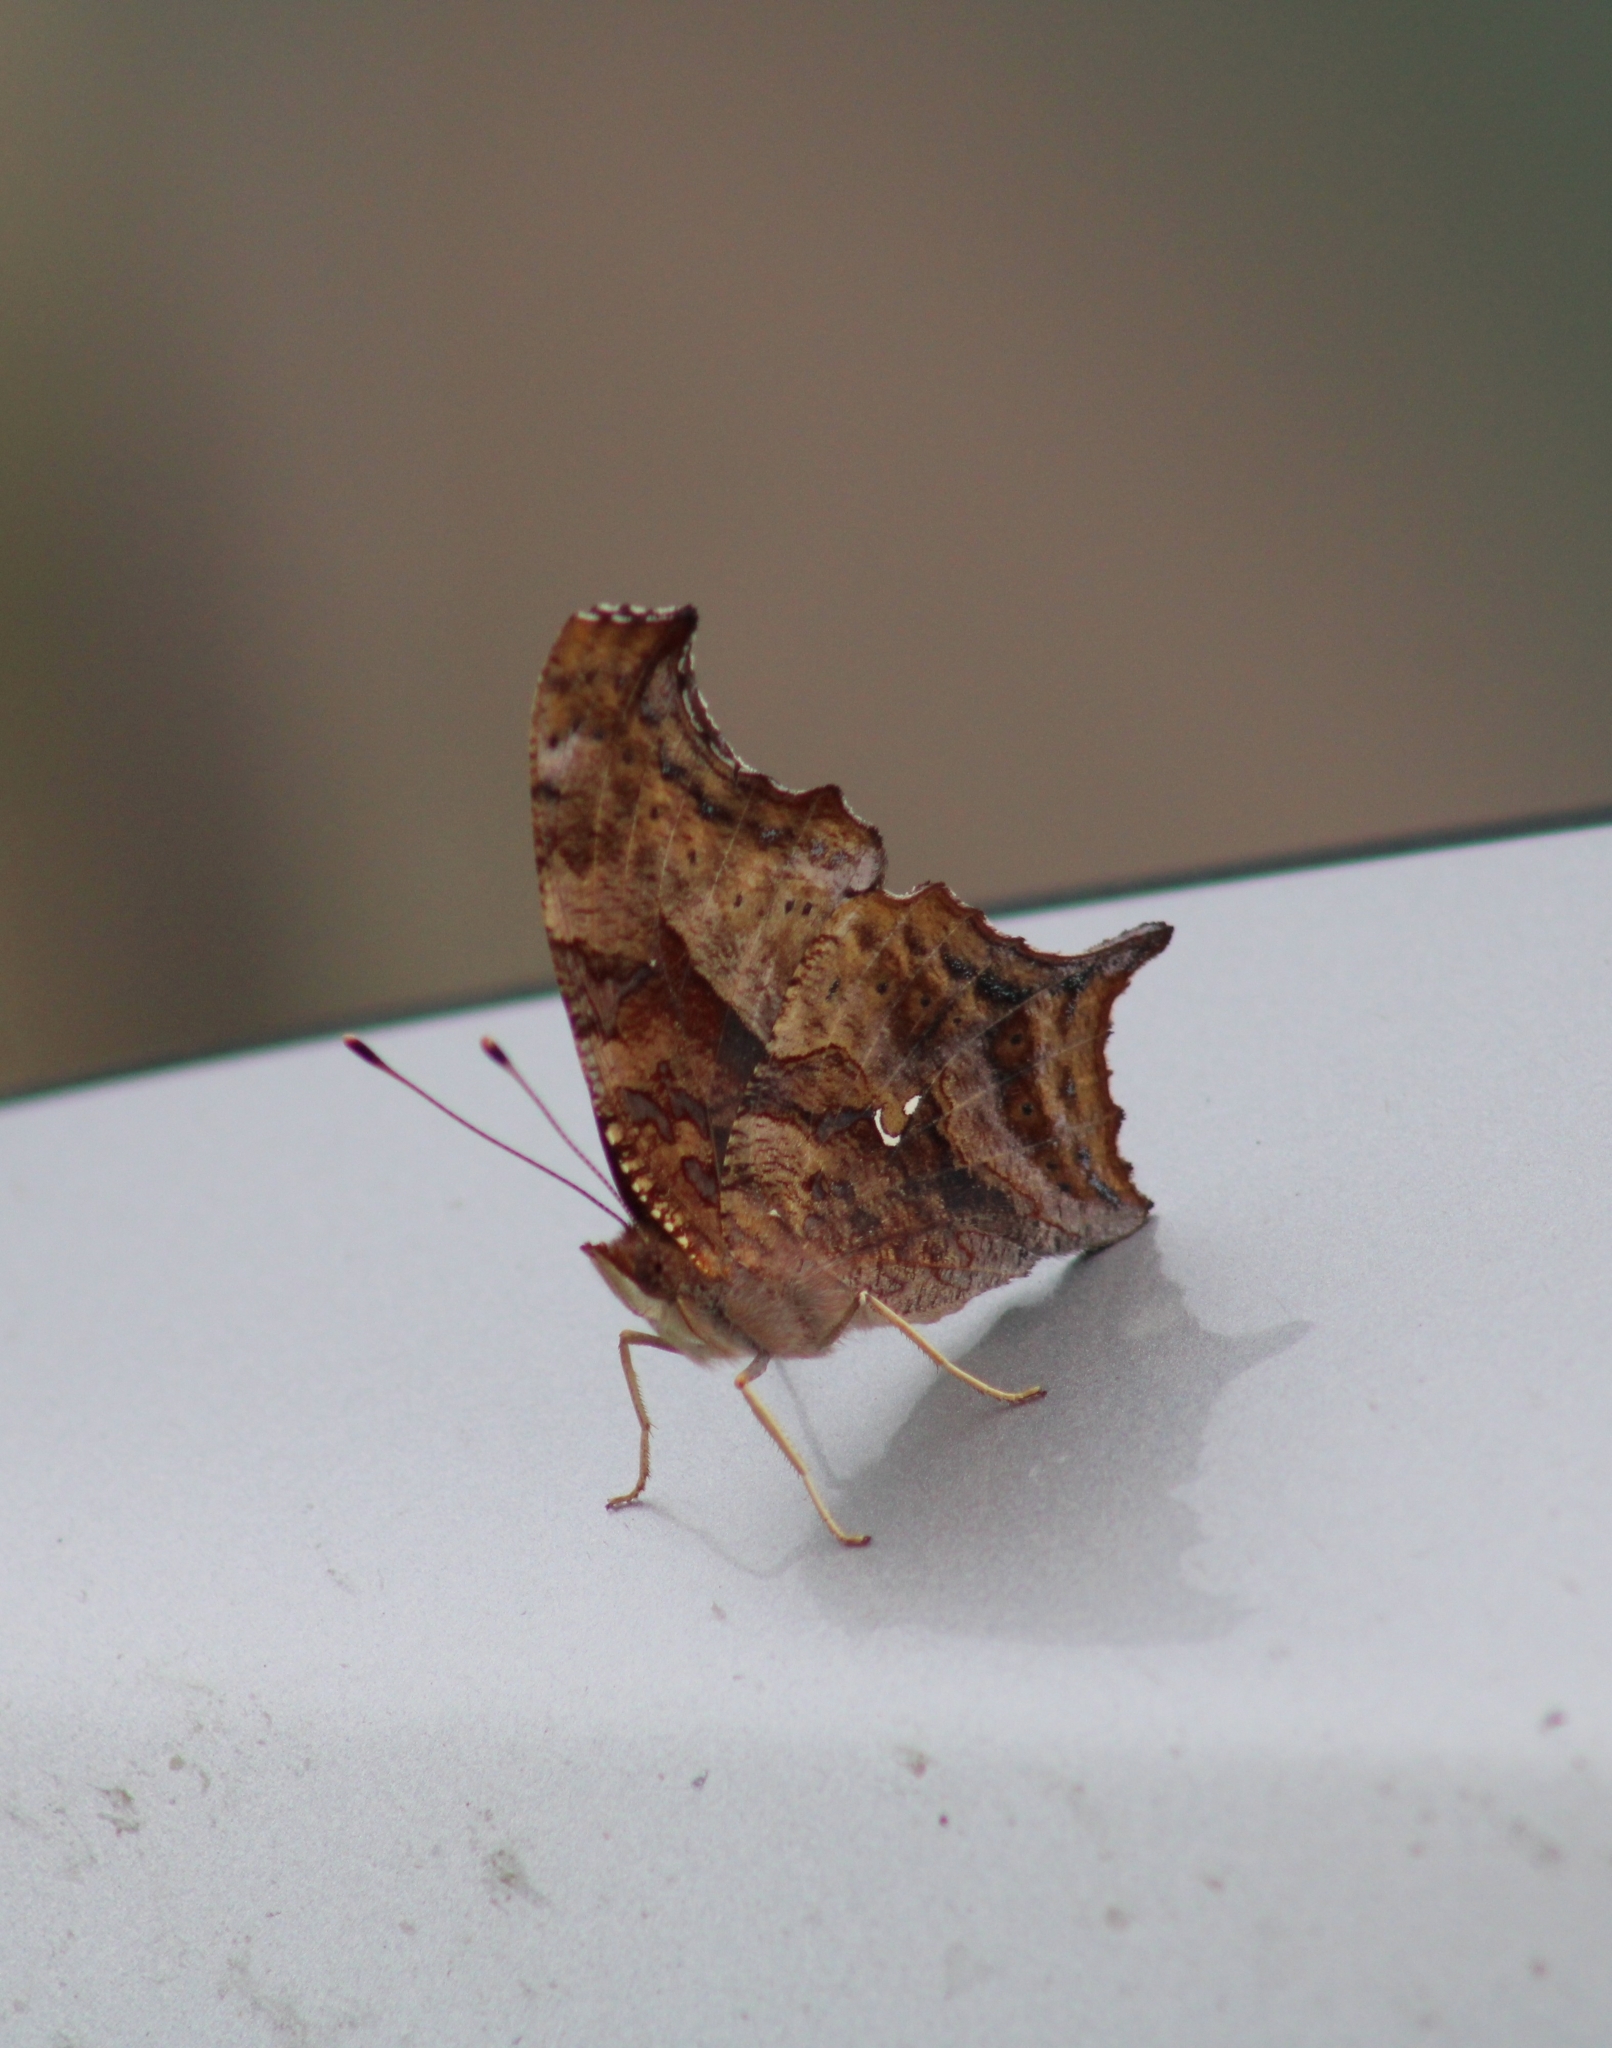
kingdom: Animalia
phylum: Arthropoda
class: Insecta
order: Lepidoptera
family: Nymphalidae
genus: Polygonia
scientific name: Polygonia interrogationis
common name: Question mark
